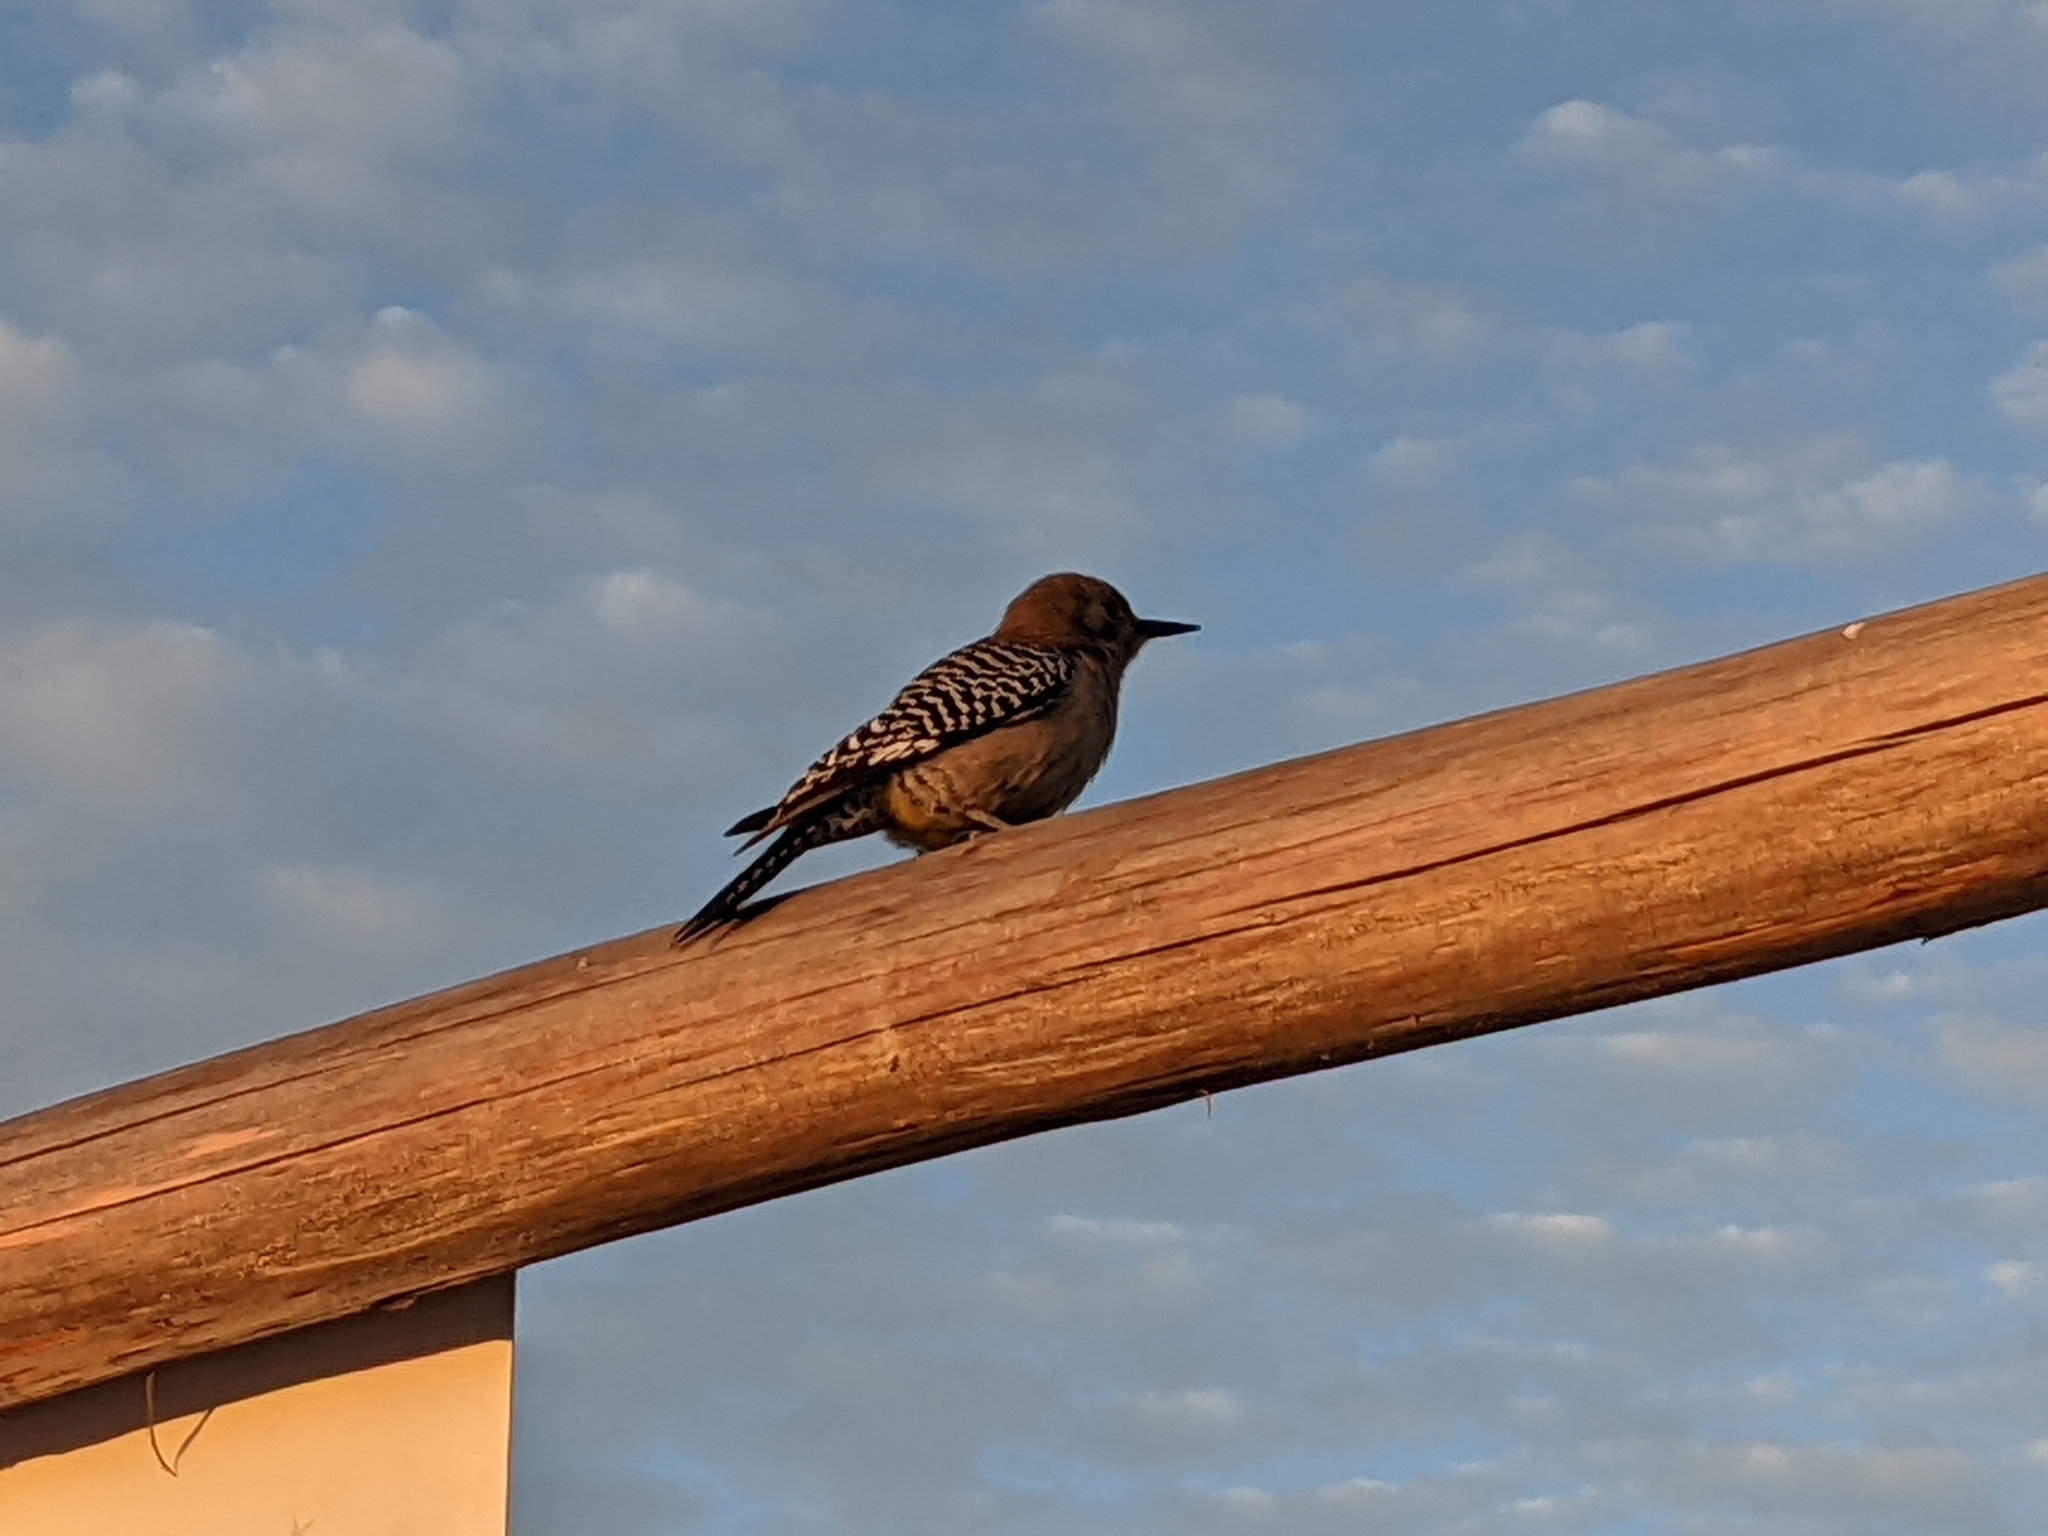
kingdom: Animalia
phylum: Chordata
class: Aves
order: Piciformes
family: Picidae
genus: Melanerpes
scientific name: Melanerpes uropygialis
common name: Gila woodpecker
